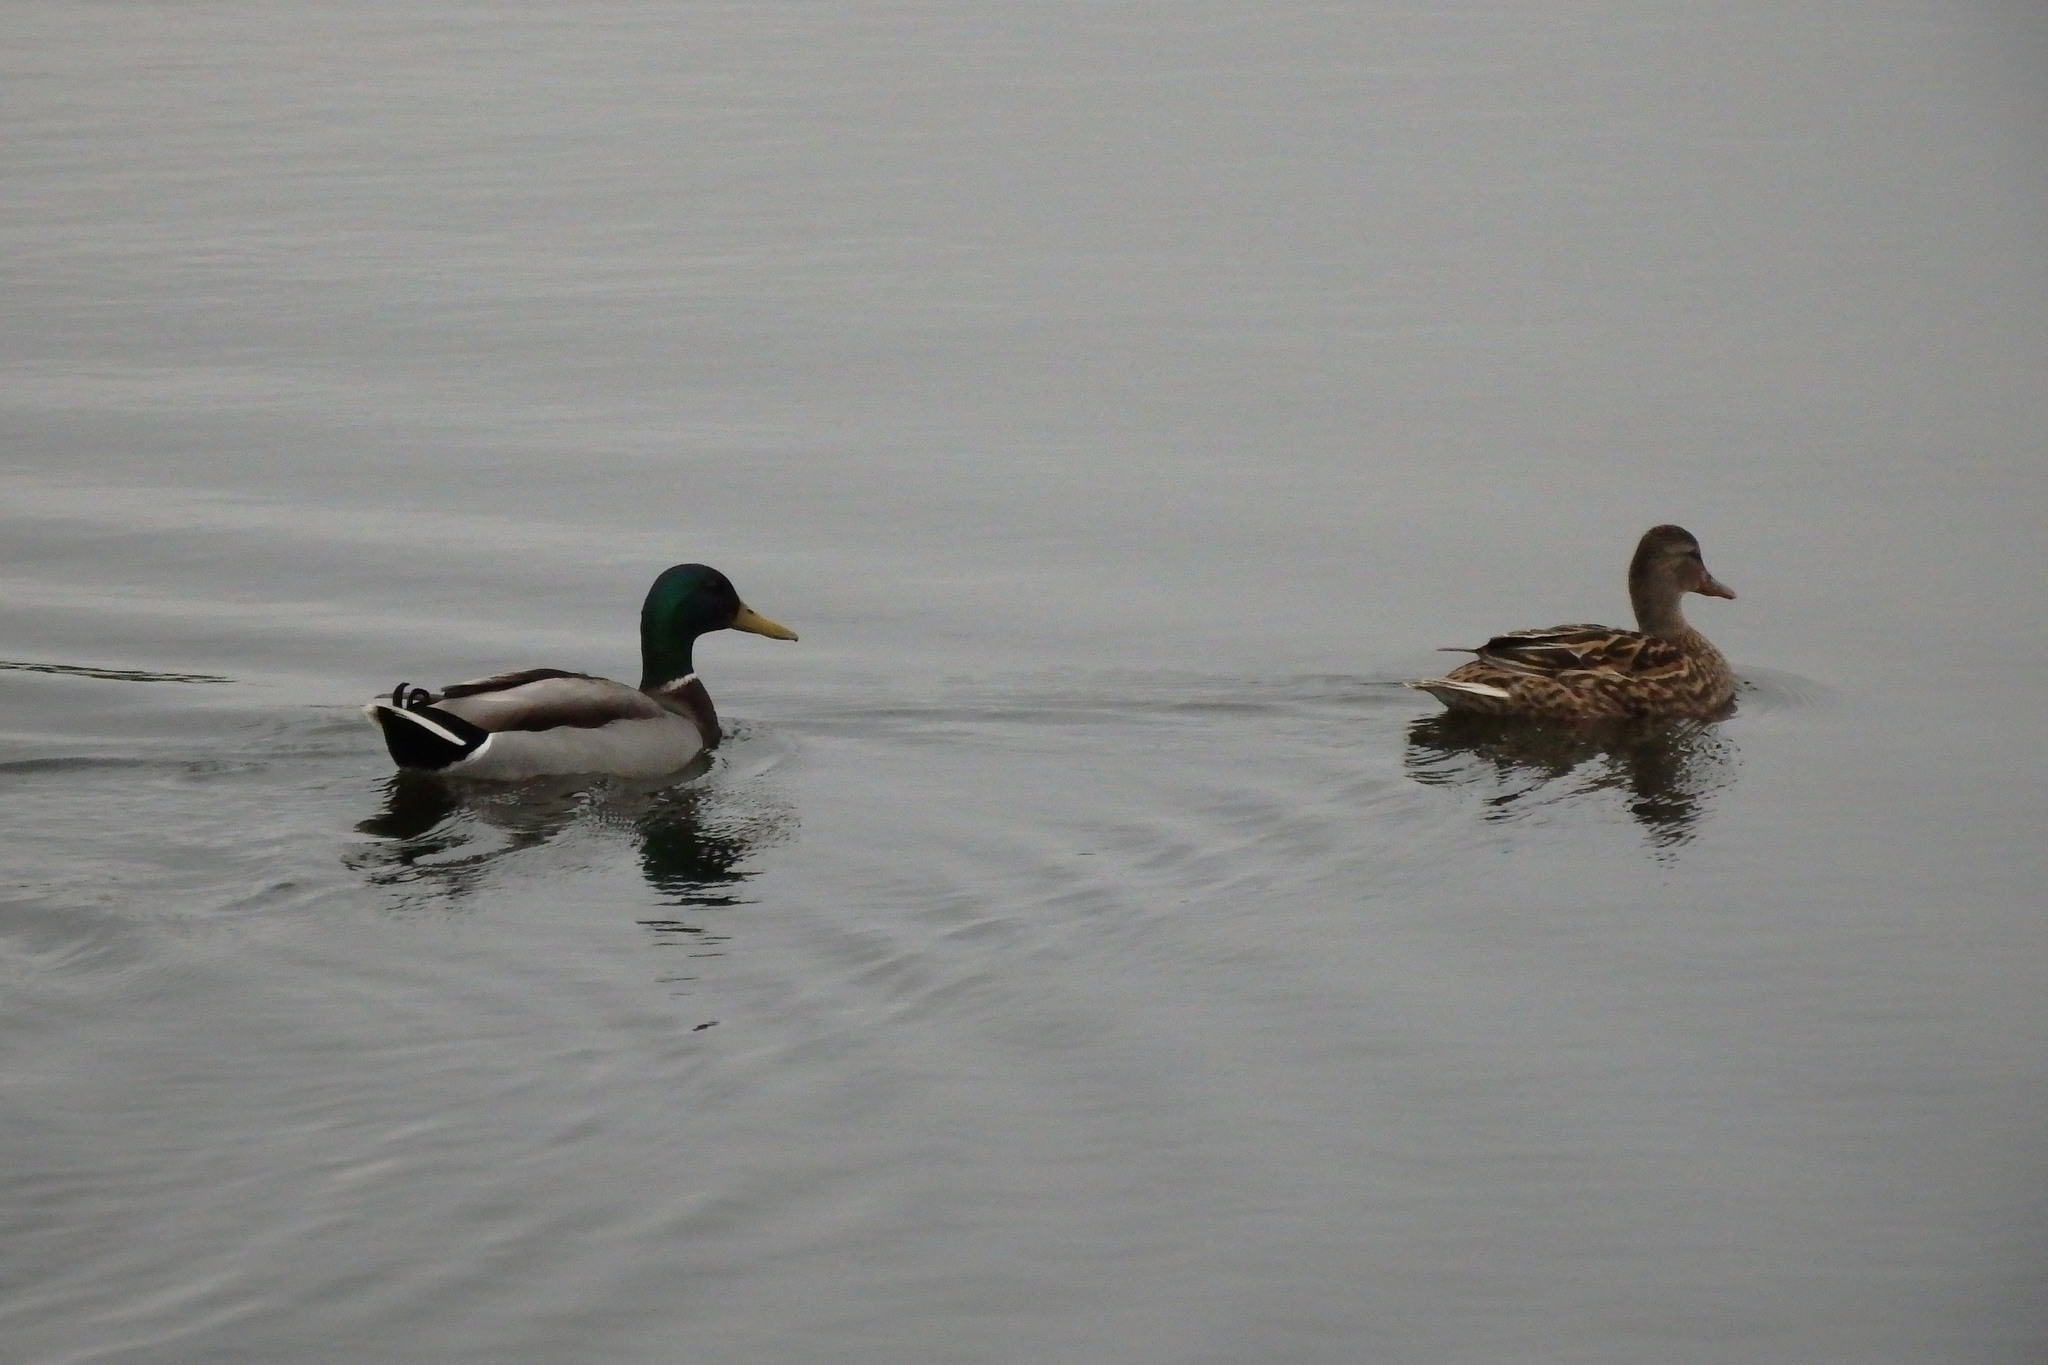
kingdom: Animalia
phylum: Chordata
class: Aves
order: Anseriformes
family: Anatidae
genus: Anas
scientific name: Anas platyrhynchos
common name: Mallard
